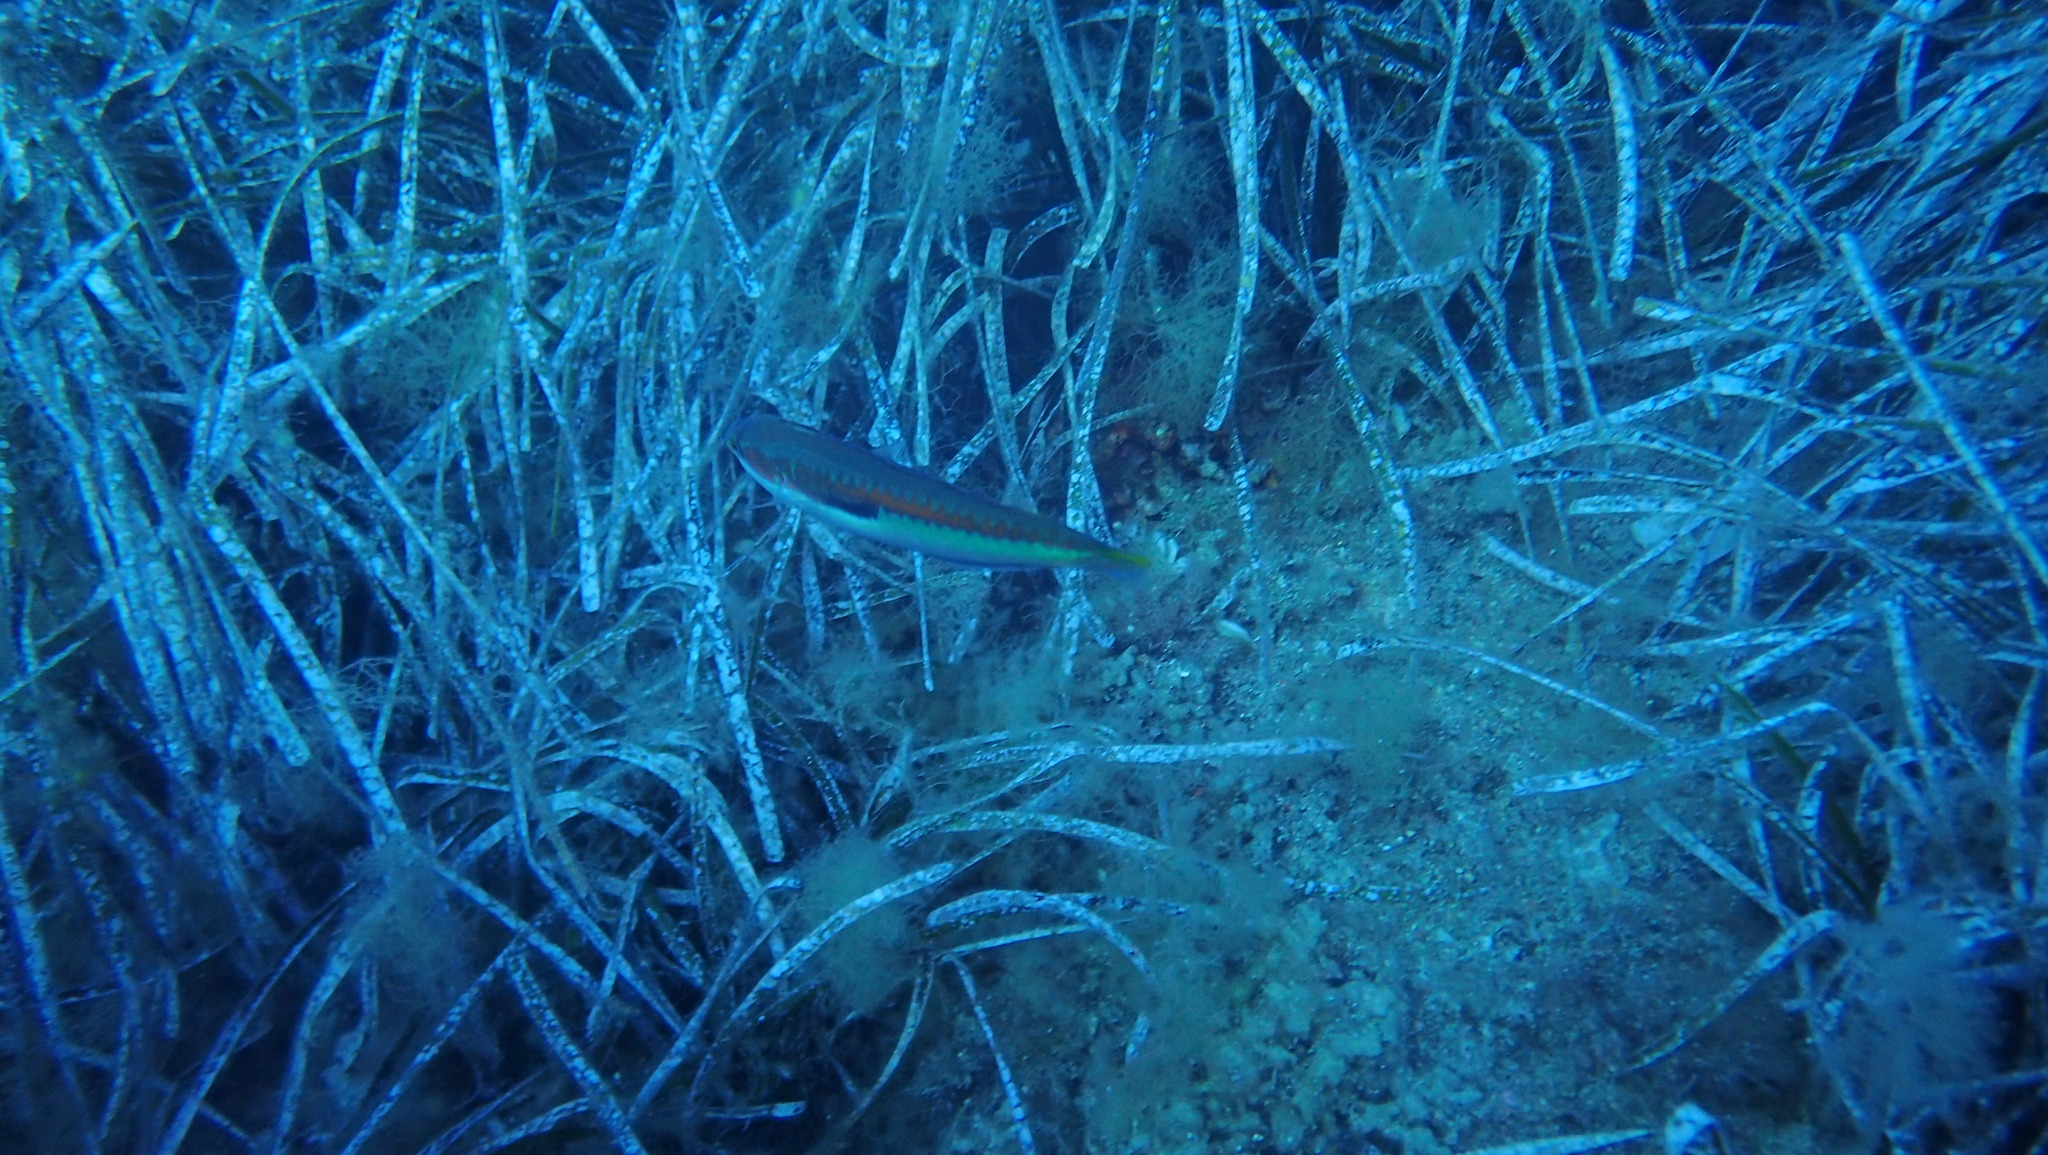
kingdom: Animalia
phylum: Chordata
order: Perciformes
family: Labridae
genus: Coris
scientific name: Coris julis
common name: Rainbow wrasse
